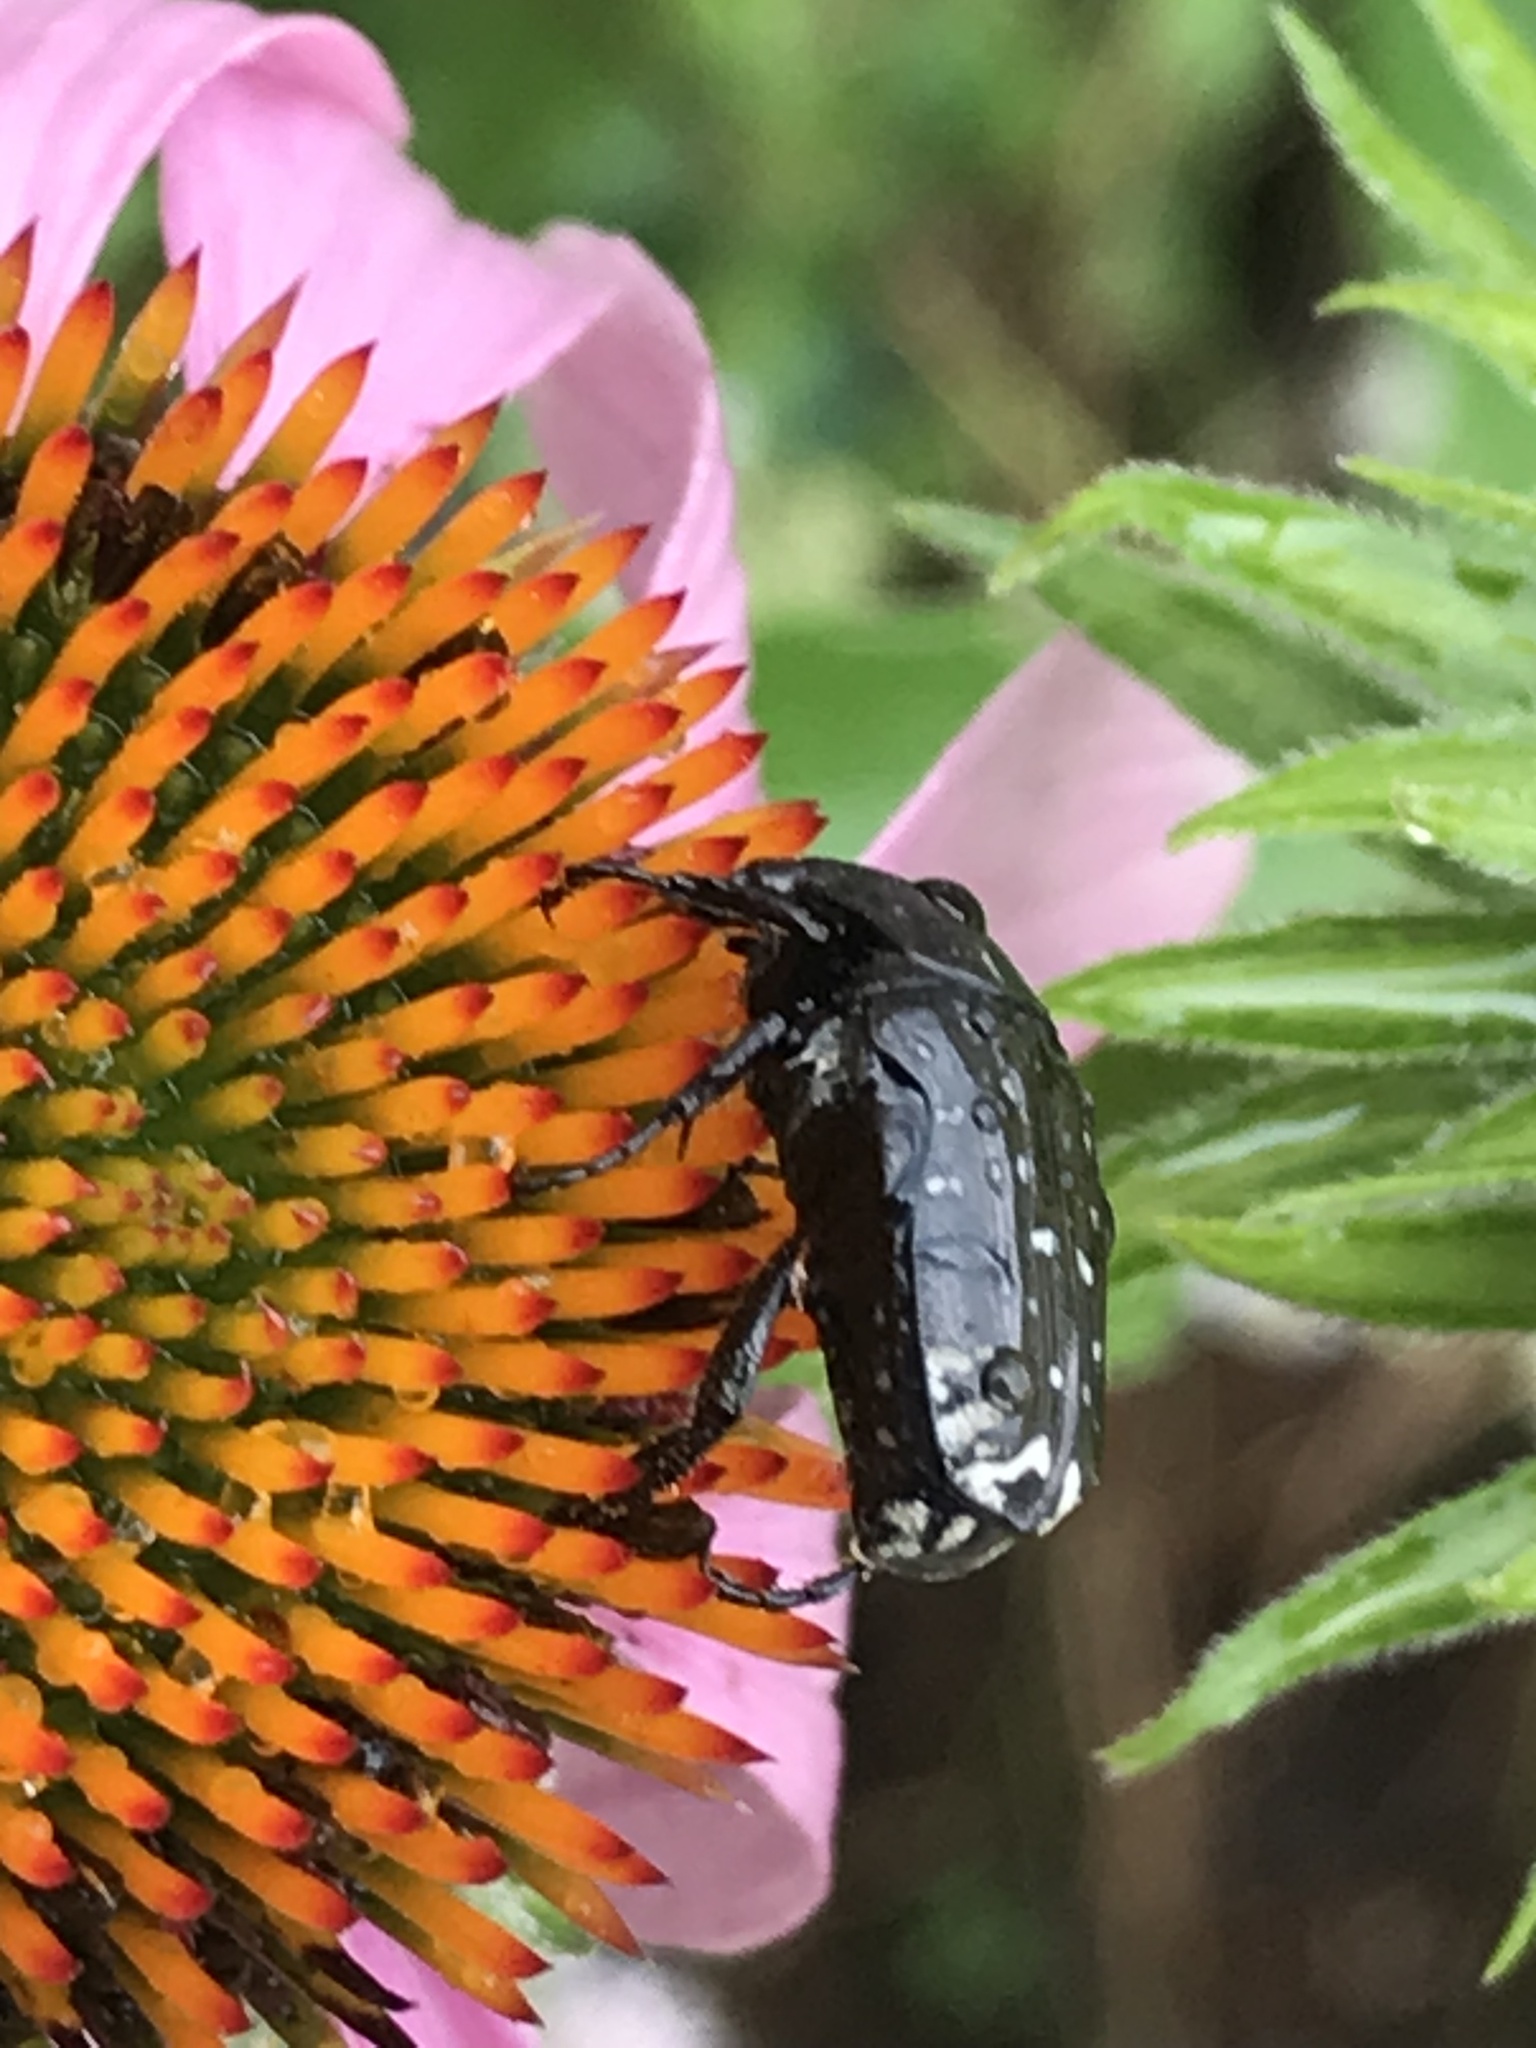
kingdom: Animalia
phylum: Arthropoda
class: Insecta
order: Coleoptera
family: Scarabaeidae
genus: Oxythyrea
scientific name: Oxythyrea funesta
